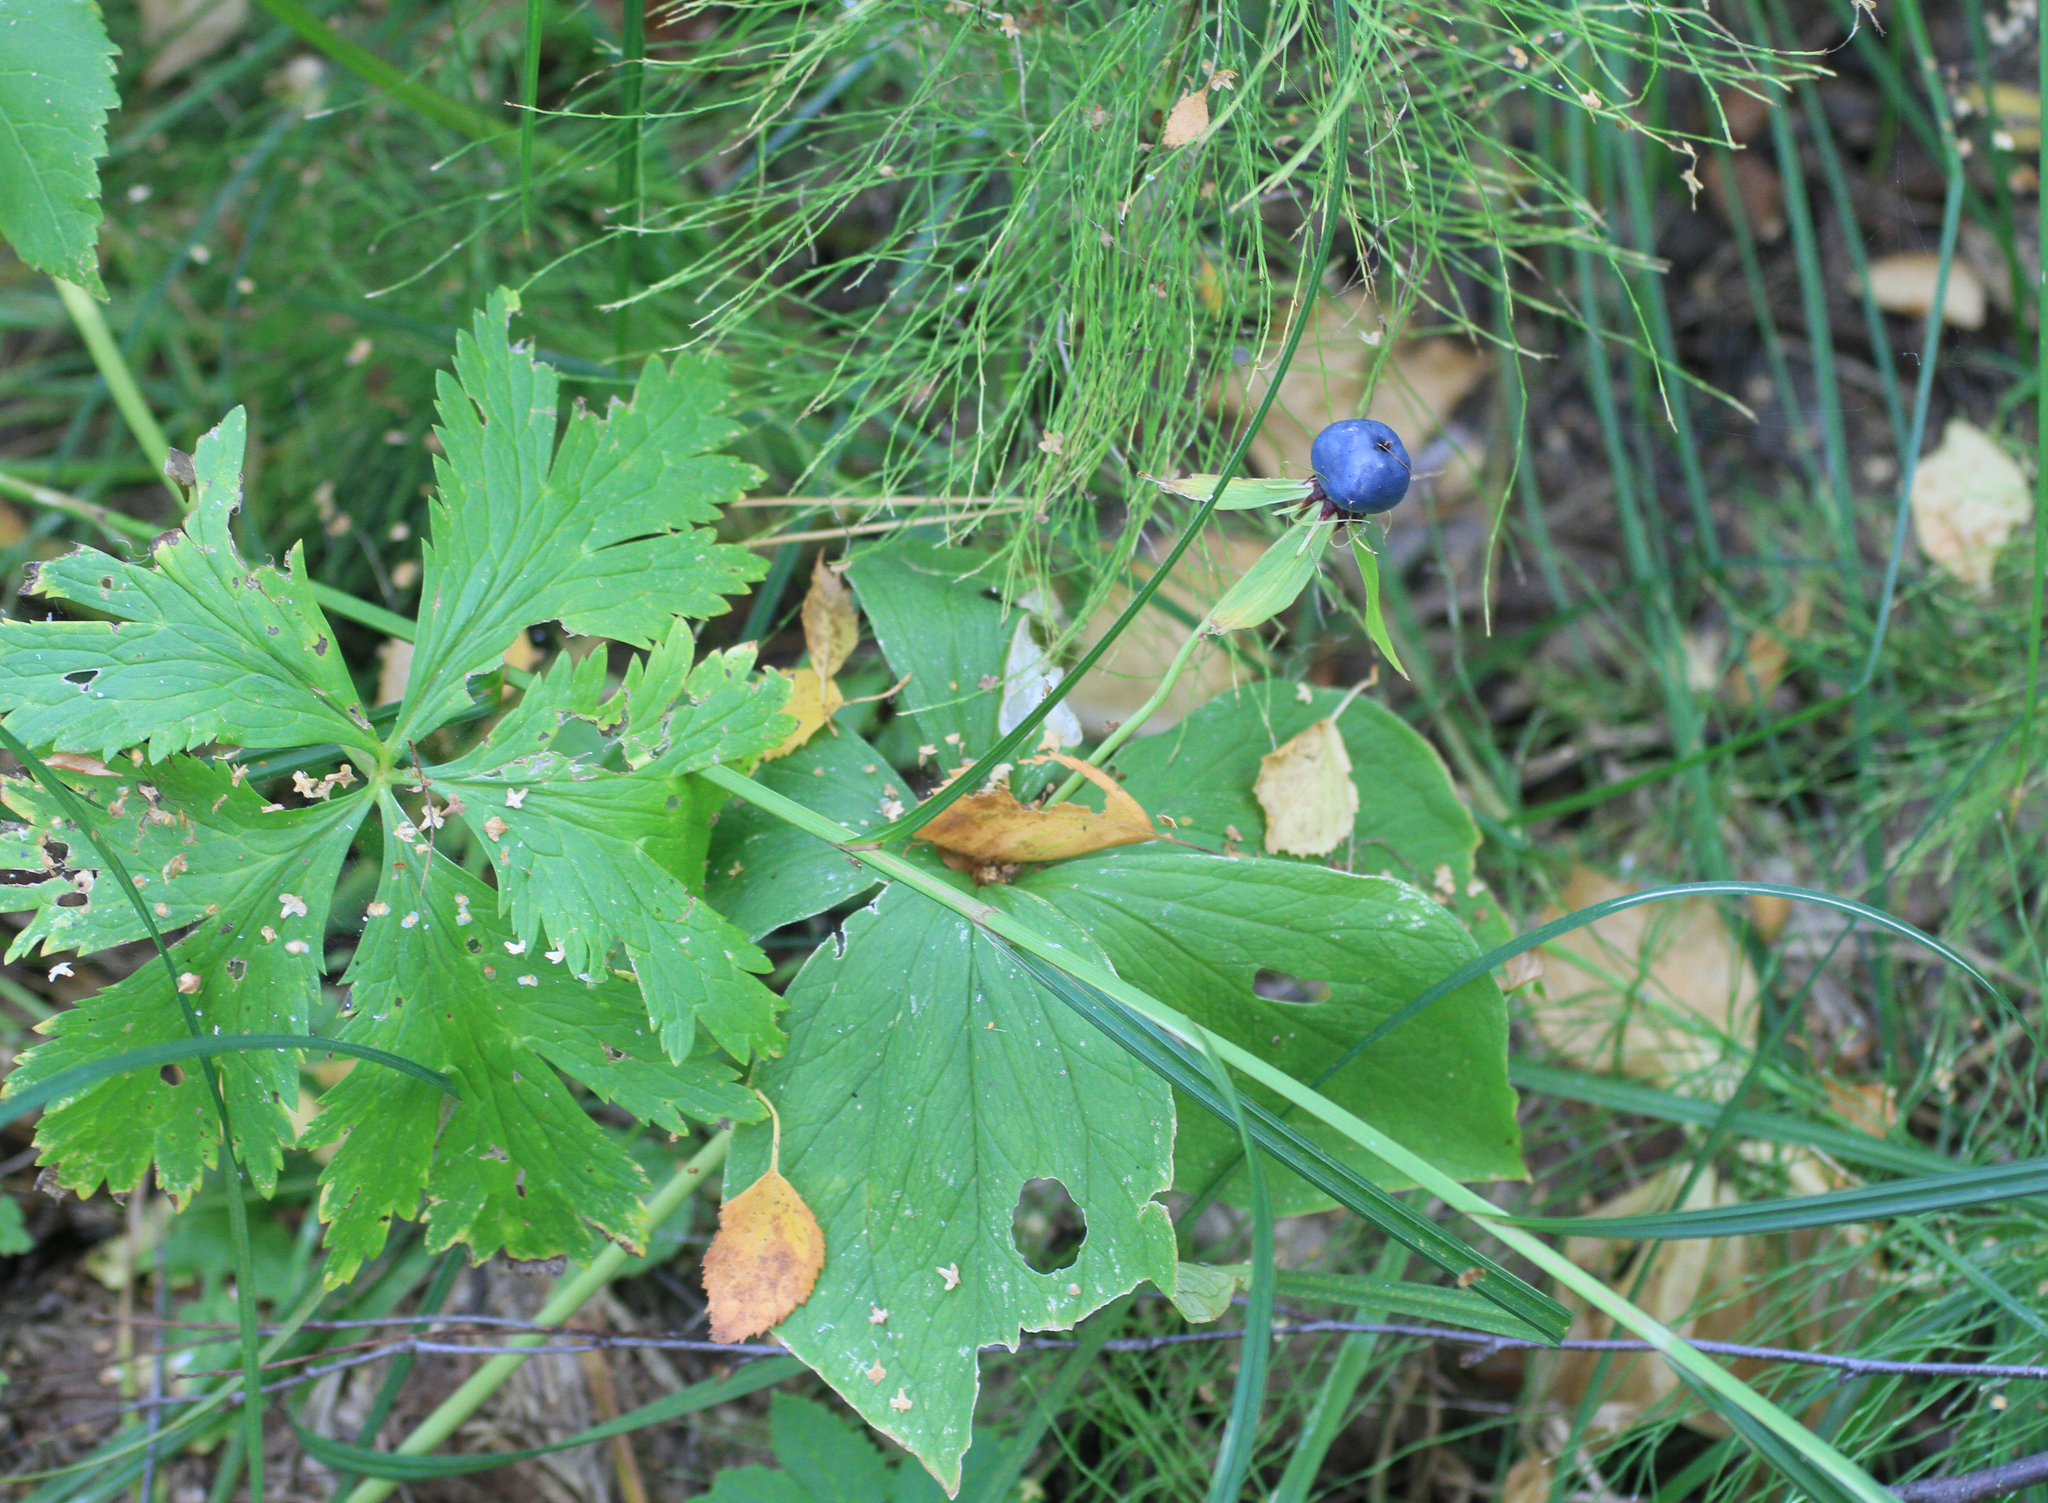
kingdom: Plantae
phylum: Tracheophyta
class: Liliopsida
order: Liliales
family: Melanthiaceae
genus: Paris
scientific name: Paris quadrifolia
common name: Herb-paris
